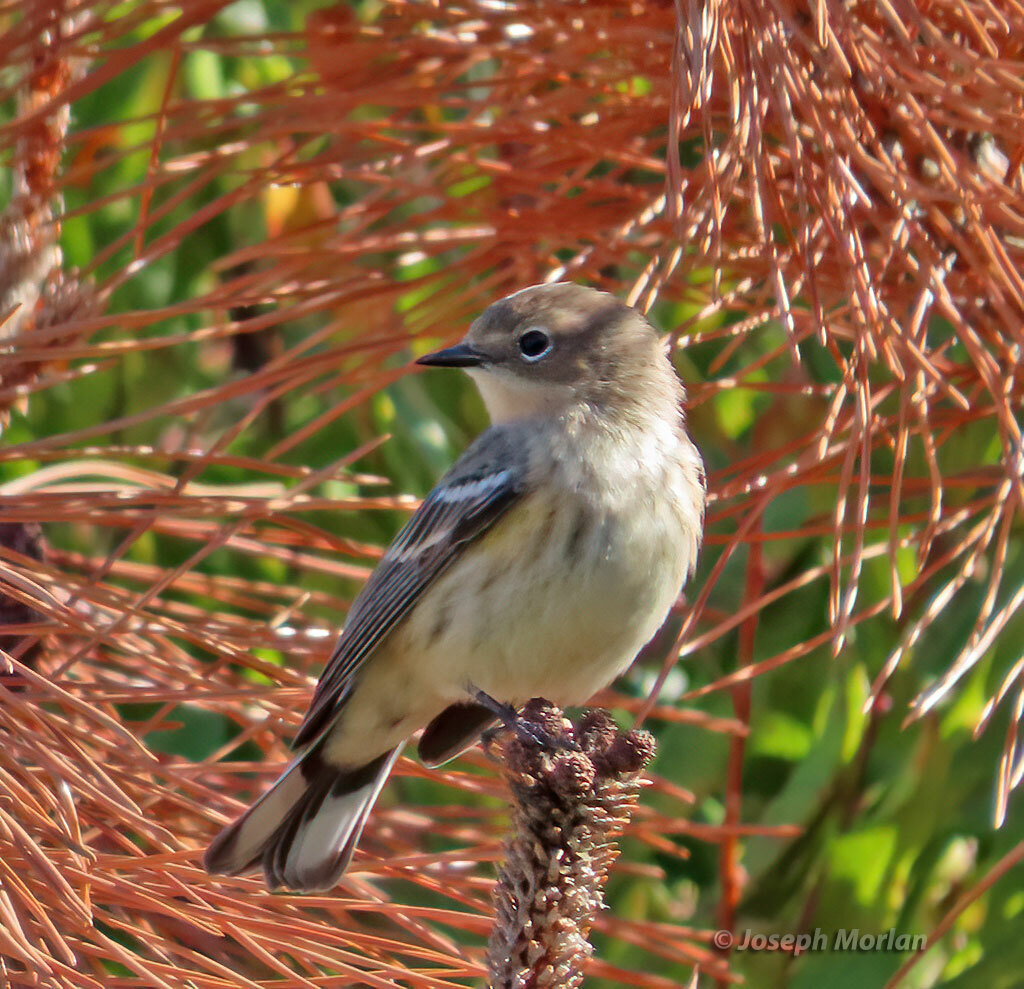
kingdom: Animalia
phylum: Chordata
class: Aves
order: Passeriformes
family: Parulidae
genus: Setophaga
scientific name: Setophaga coronata
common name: Myrtle warbler
